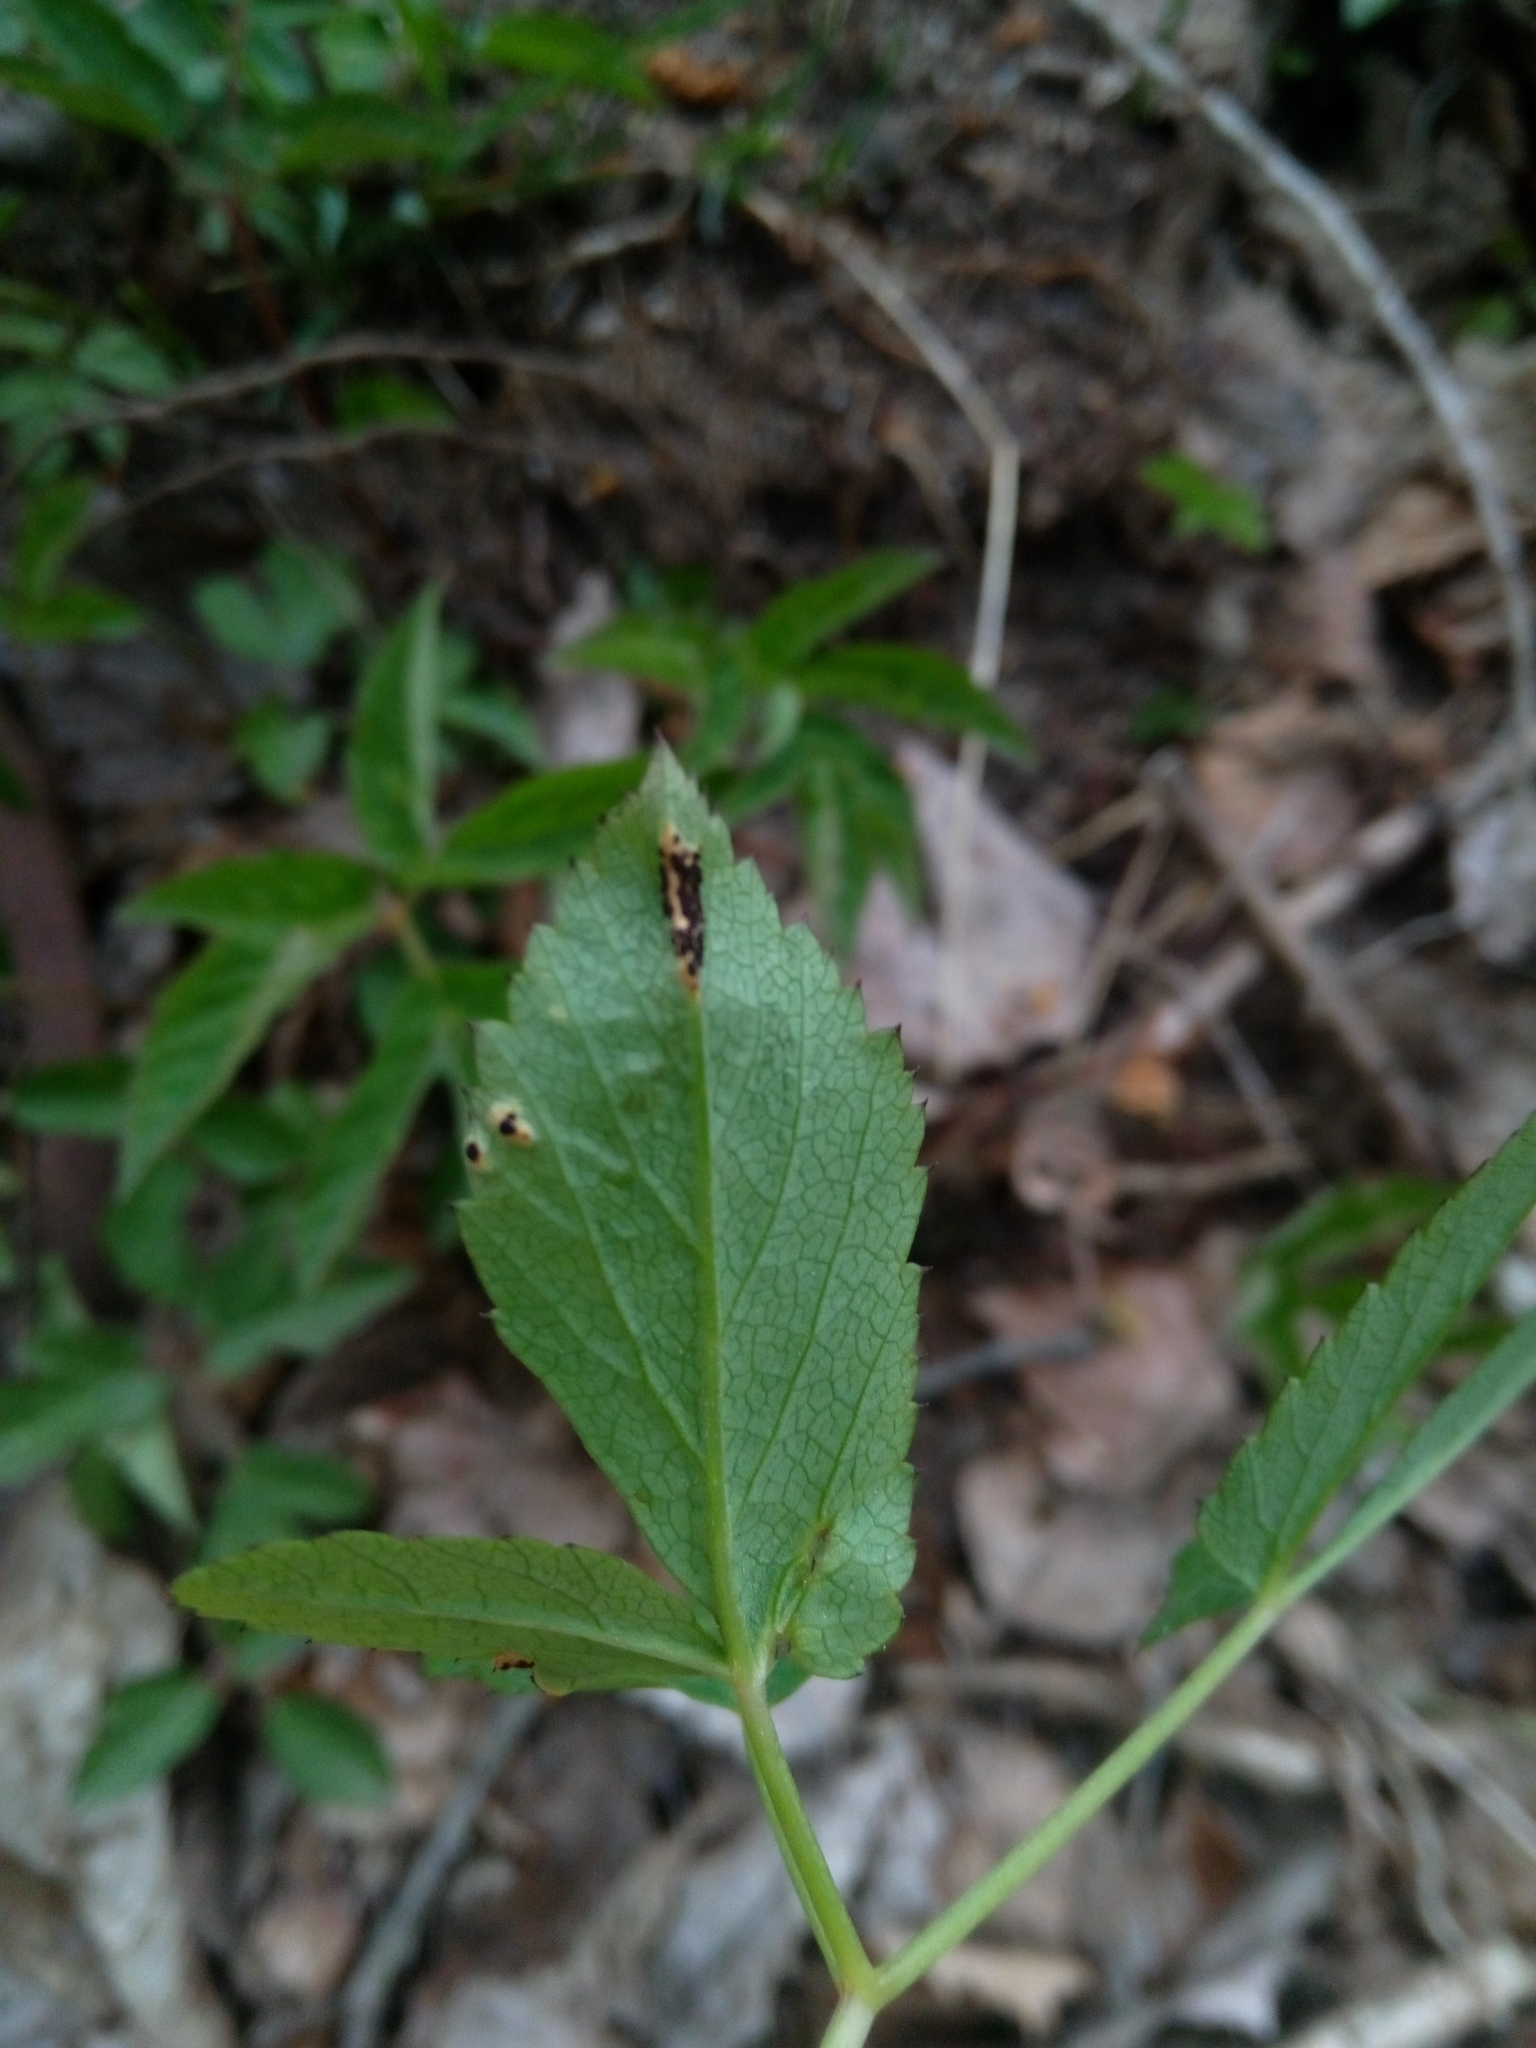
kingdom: Fungi
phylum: Basidiomycota
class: Pucciniomycetes
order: Pucciniales
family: Pucciniaceae
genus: Puccinia
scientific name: Puccinia aegopodii
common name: Ground elder rust
